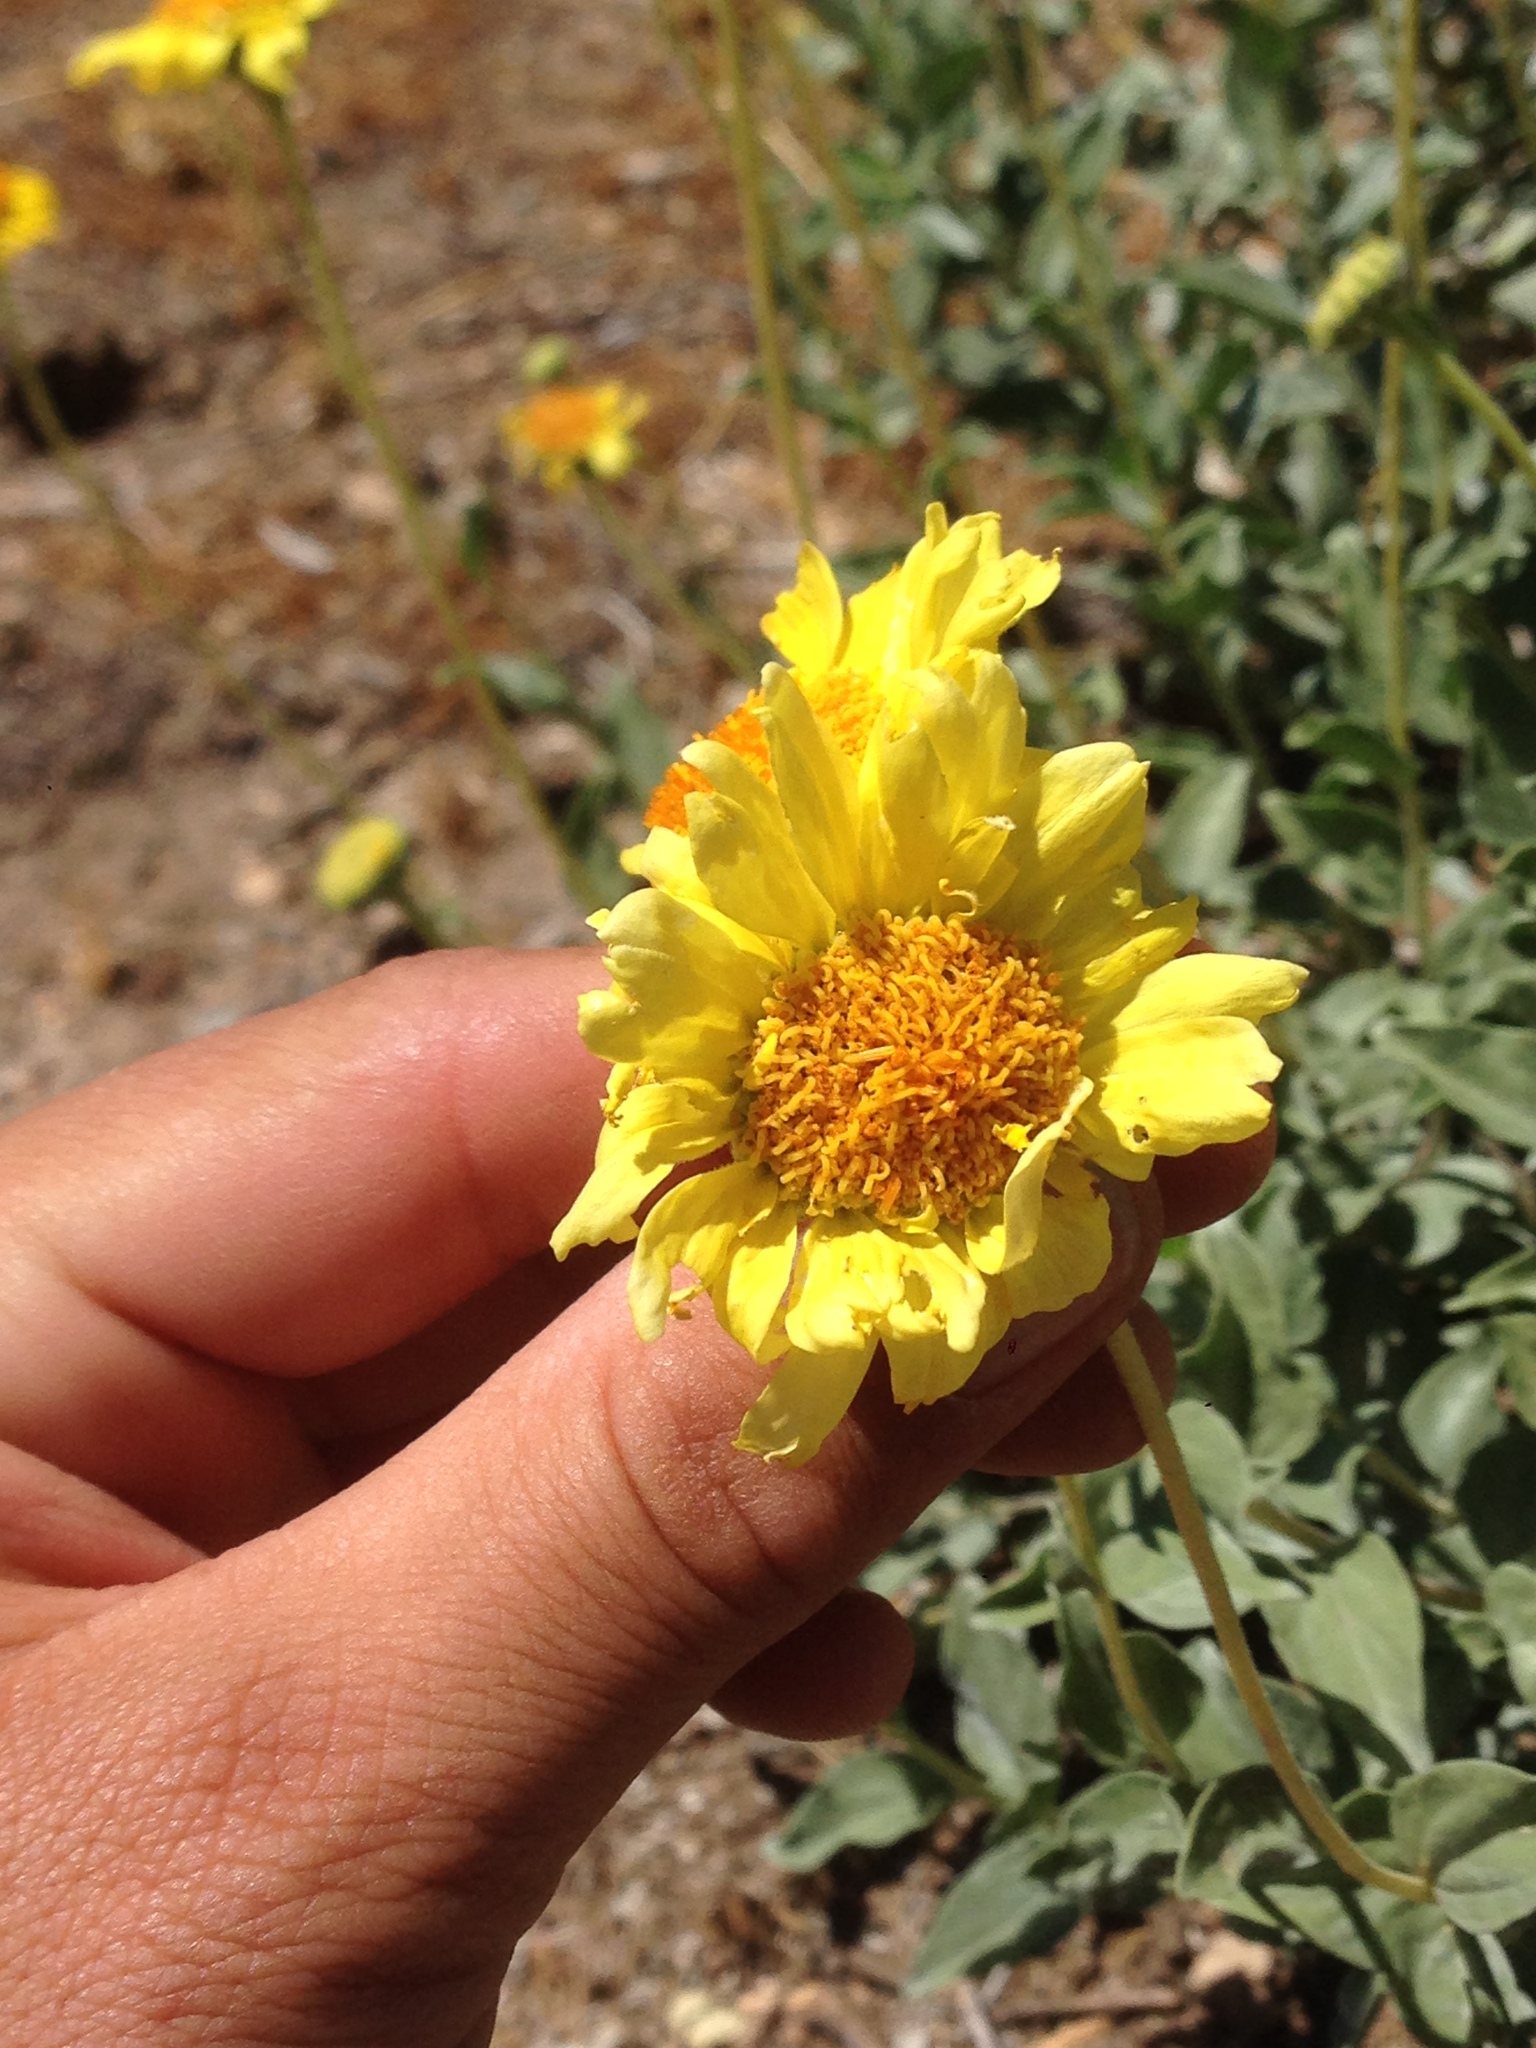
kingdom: Plantae
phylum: Tracheophyta
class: Magnoliopsida
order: Asterales
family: Asteraceae
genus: Encelia
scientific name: Encelia actoni
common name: Acton encelia
